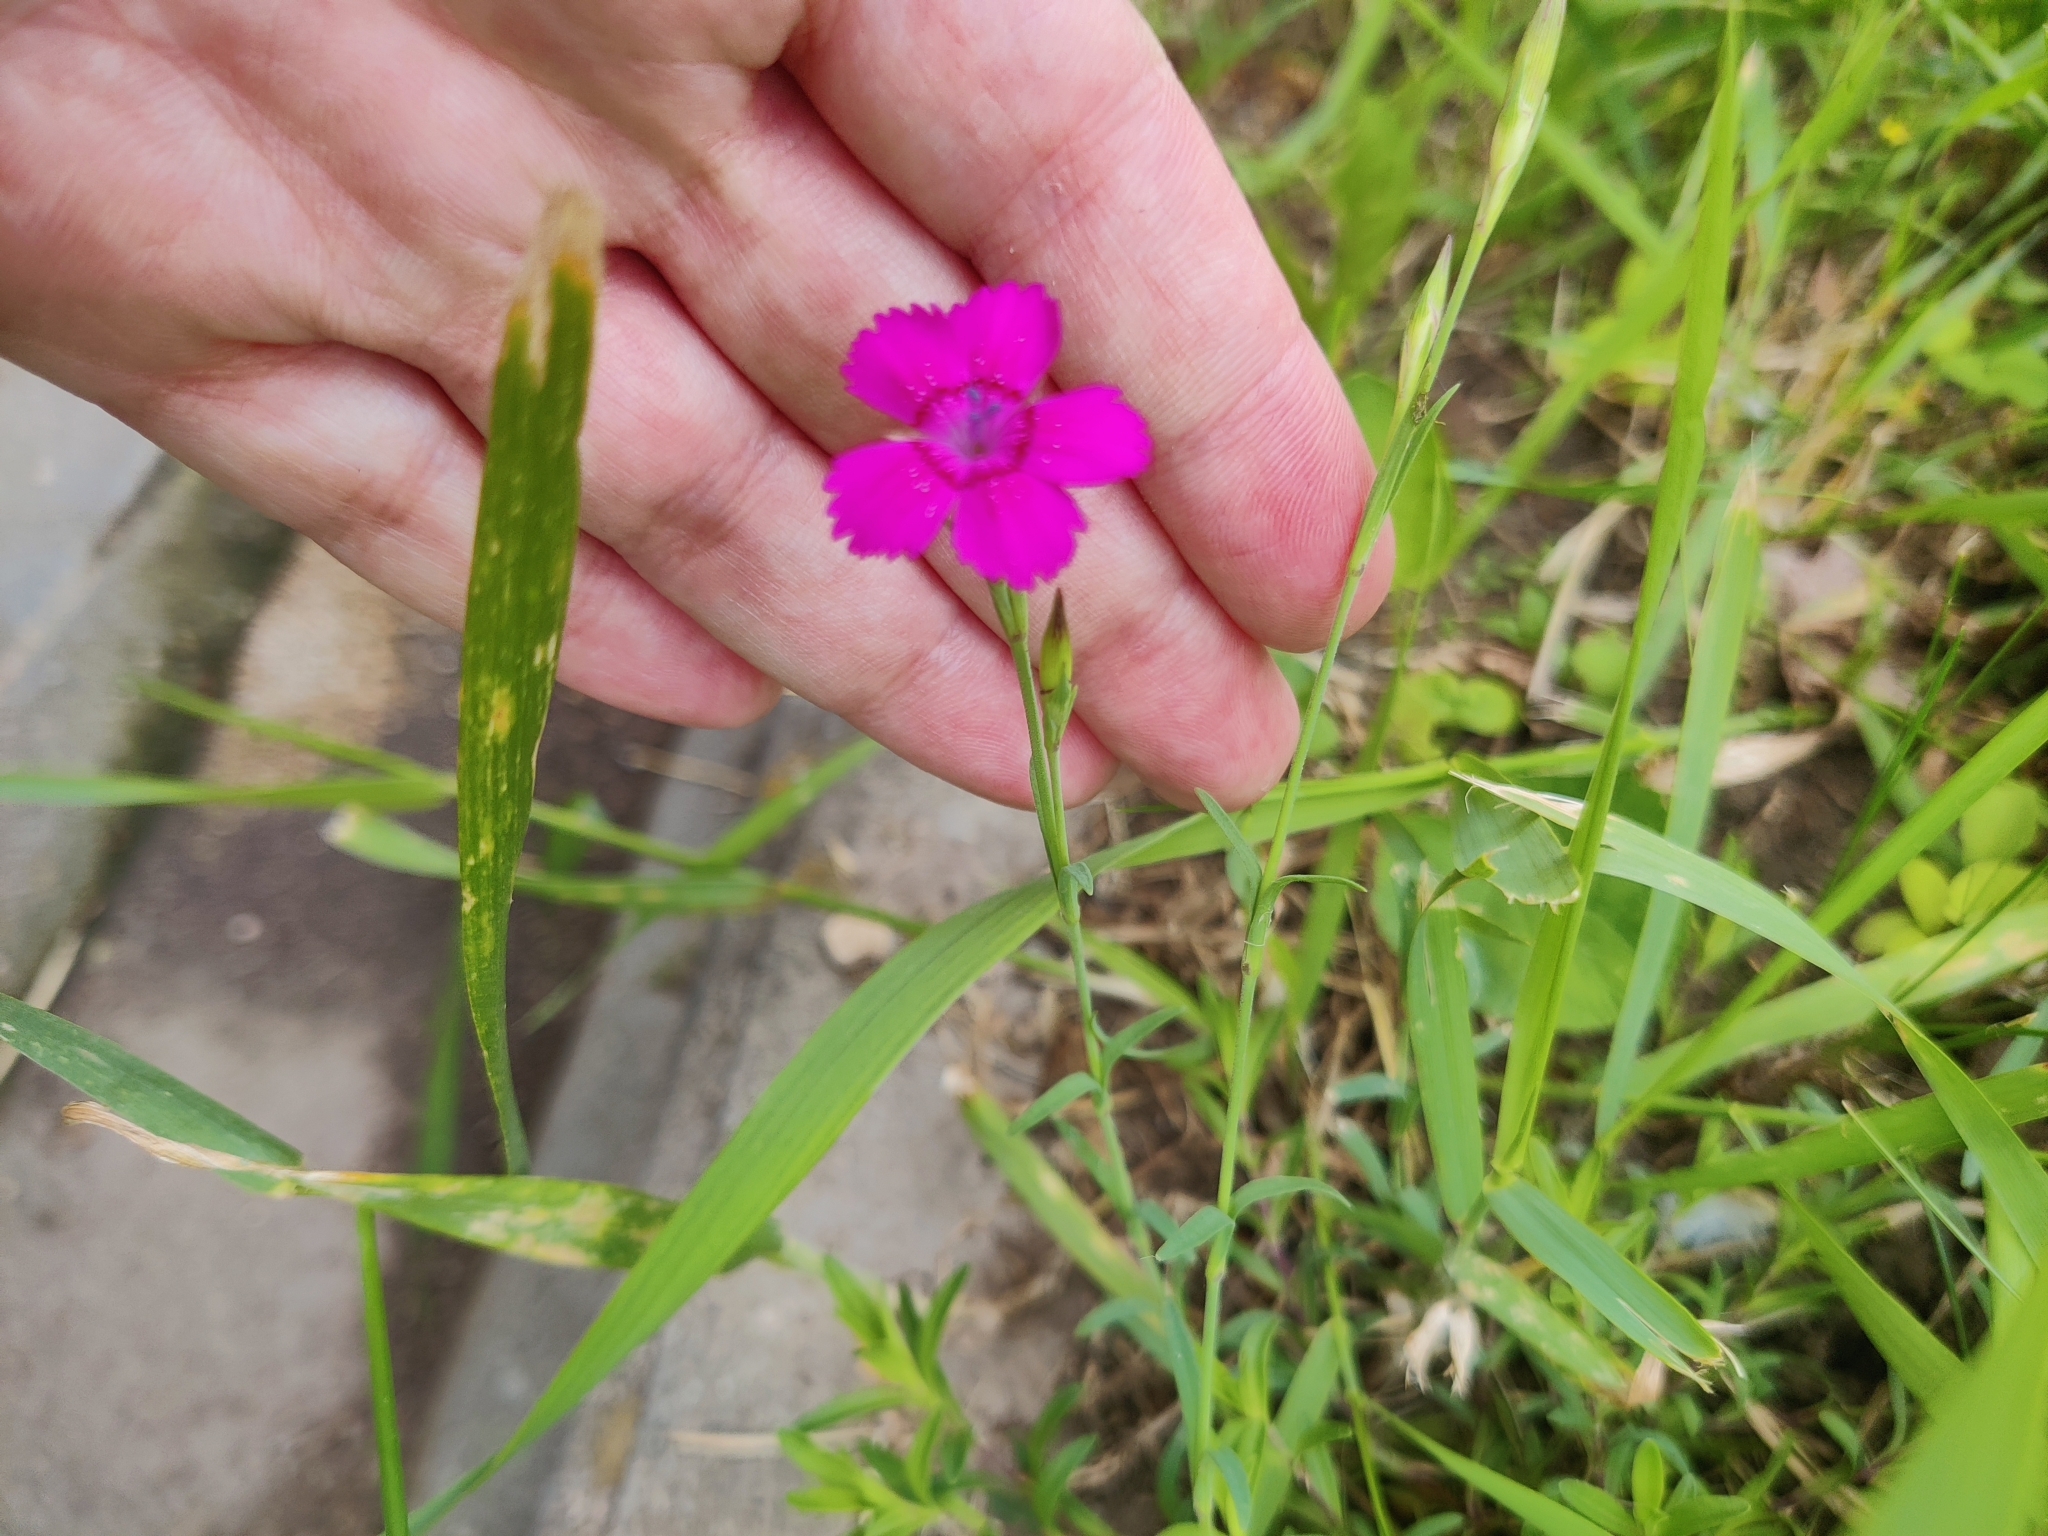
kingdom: Plantae
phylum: Tracheophyta
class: Magnoliopsida
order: Caryophyllales
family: Caryophyllaceae
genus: Dianthus
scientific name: Dianthus deltoides
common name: Maiden pink
